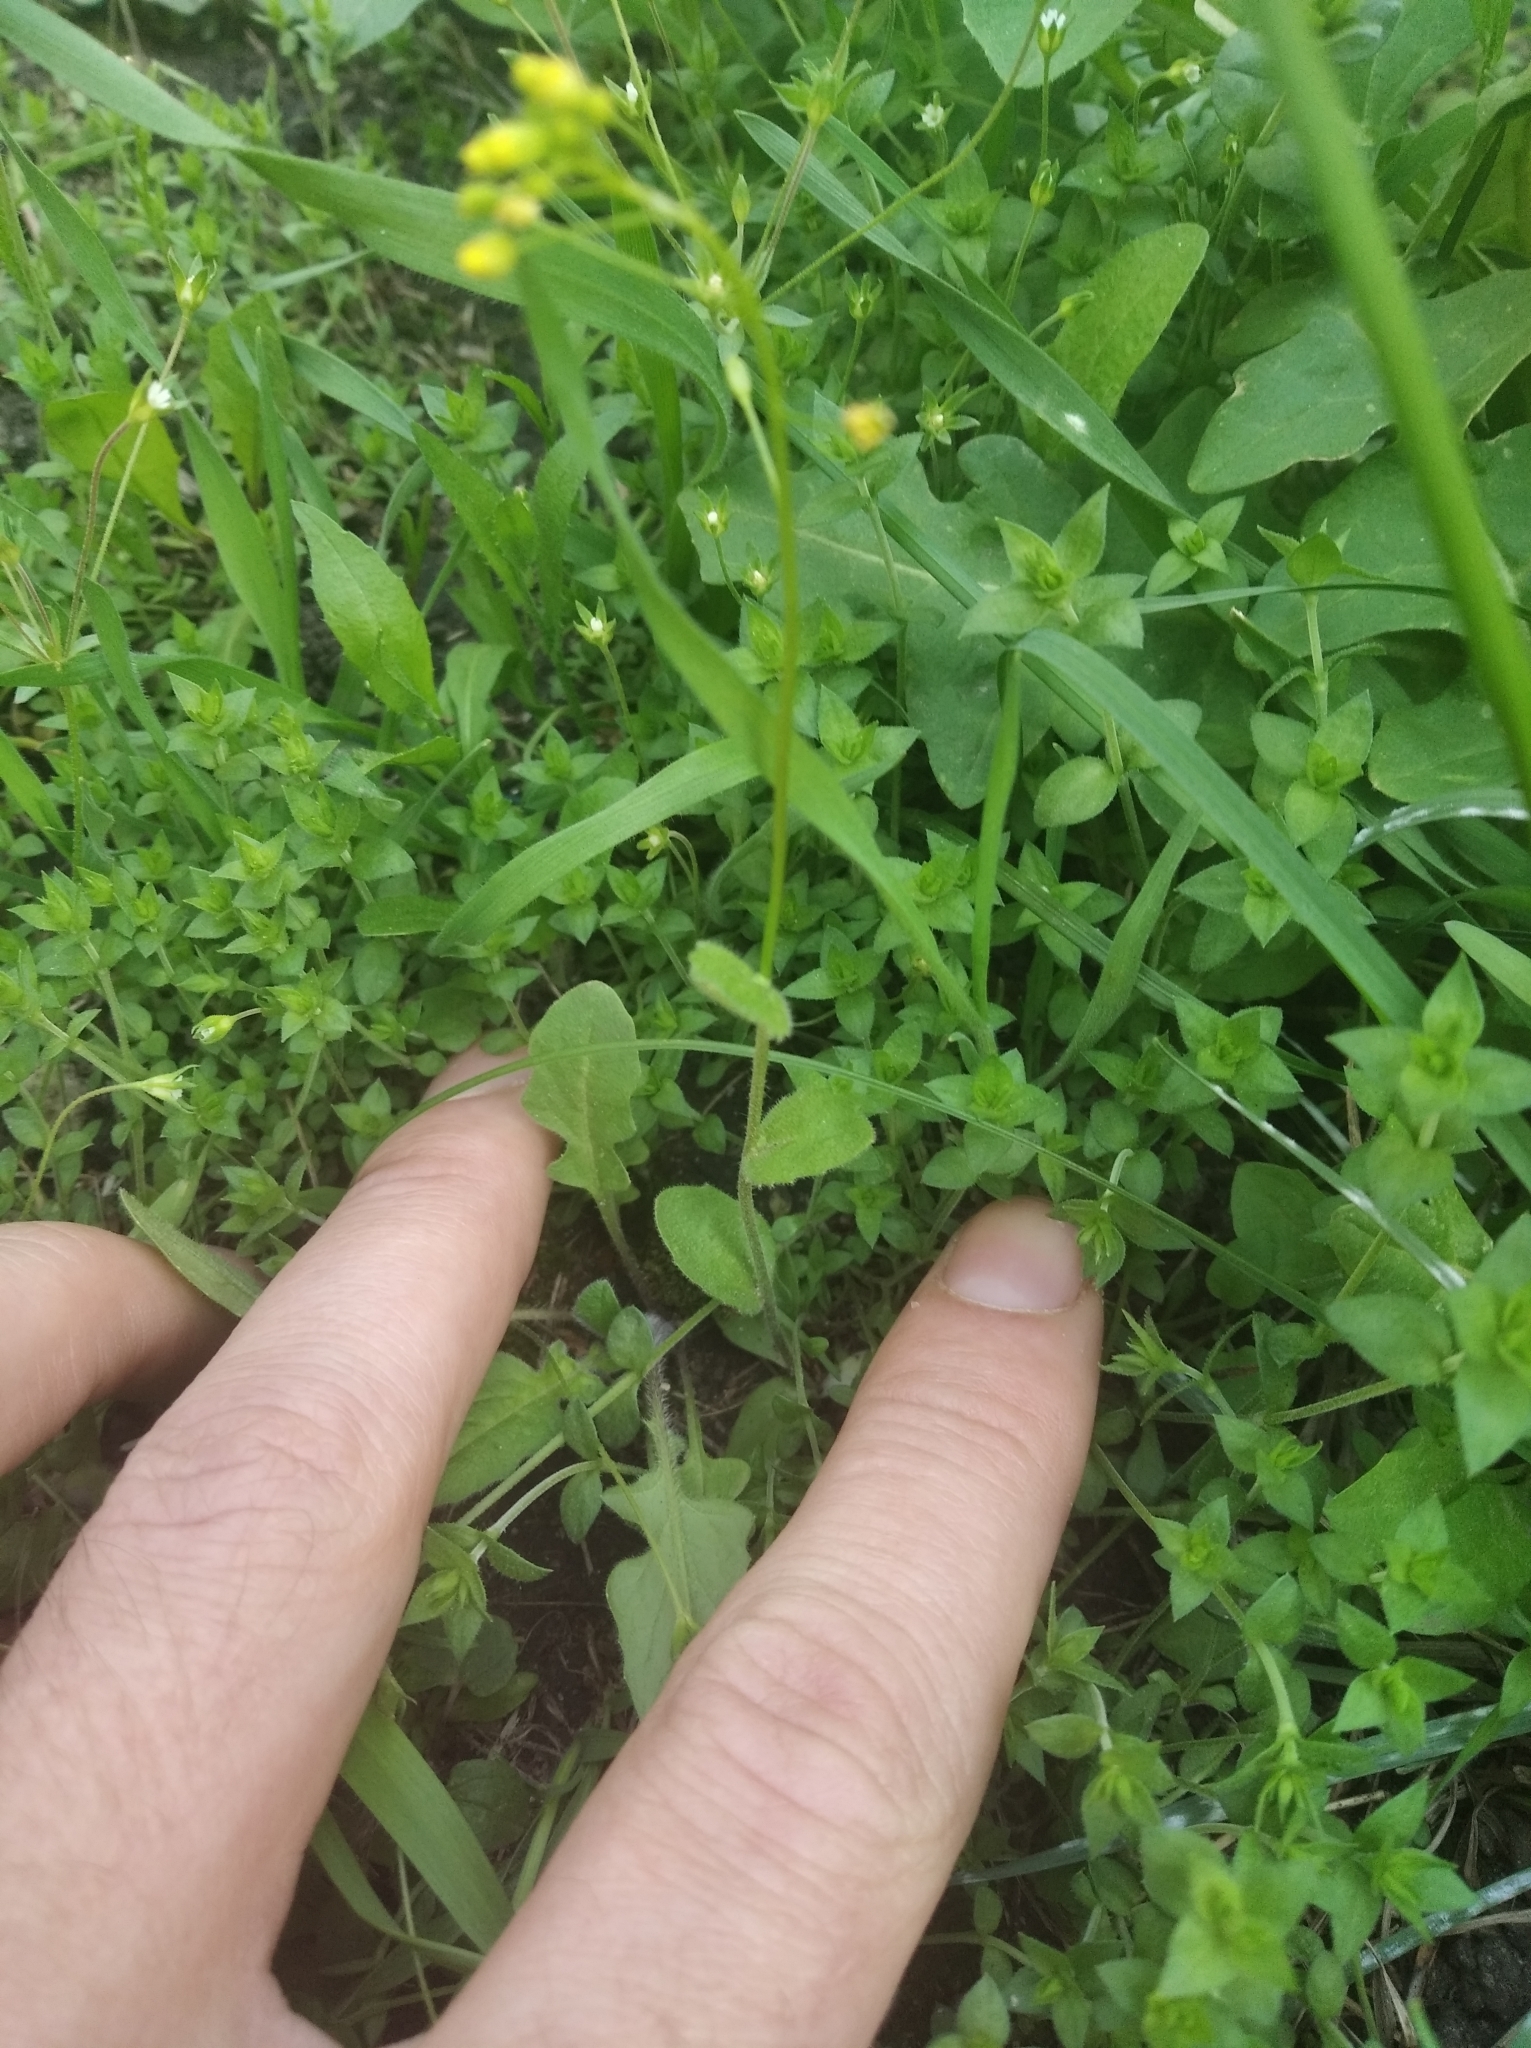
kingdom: Plantae
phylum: Tracheophyta
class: Magnoliopsida
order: Brassicales
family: Brassicaceae
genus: Draba
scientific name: Draba nemorosa
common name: Wood whitlow-grass
